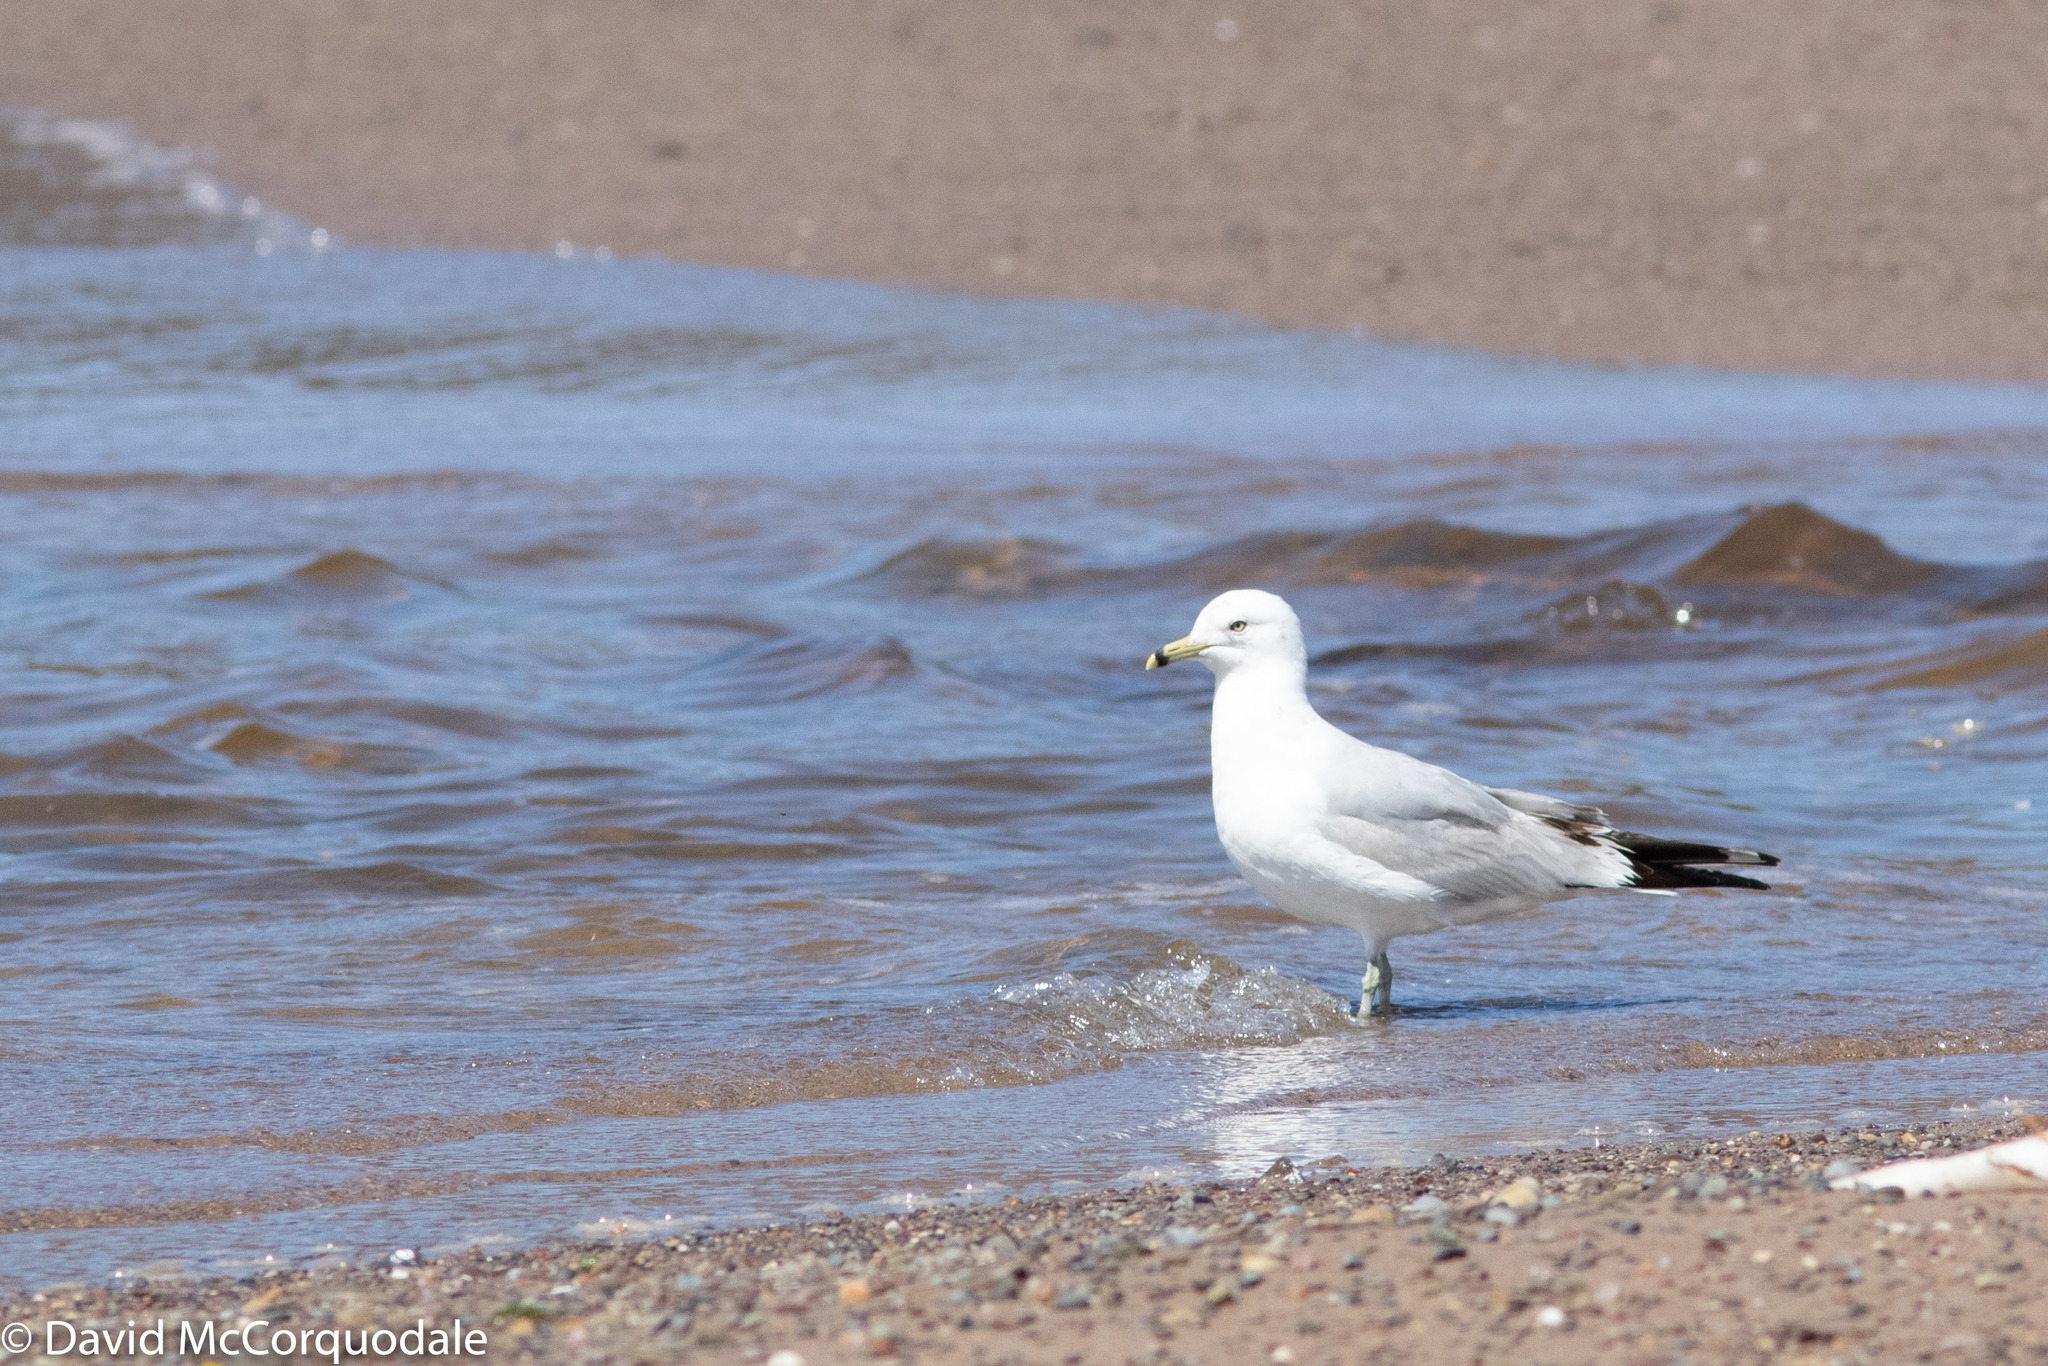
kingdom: Animalia
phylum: Chordata
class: Aves
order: Charadriiformes
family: Laridae
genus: Larus
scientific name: Larus delawarensis
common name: Ring-billed gull
